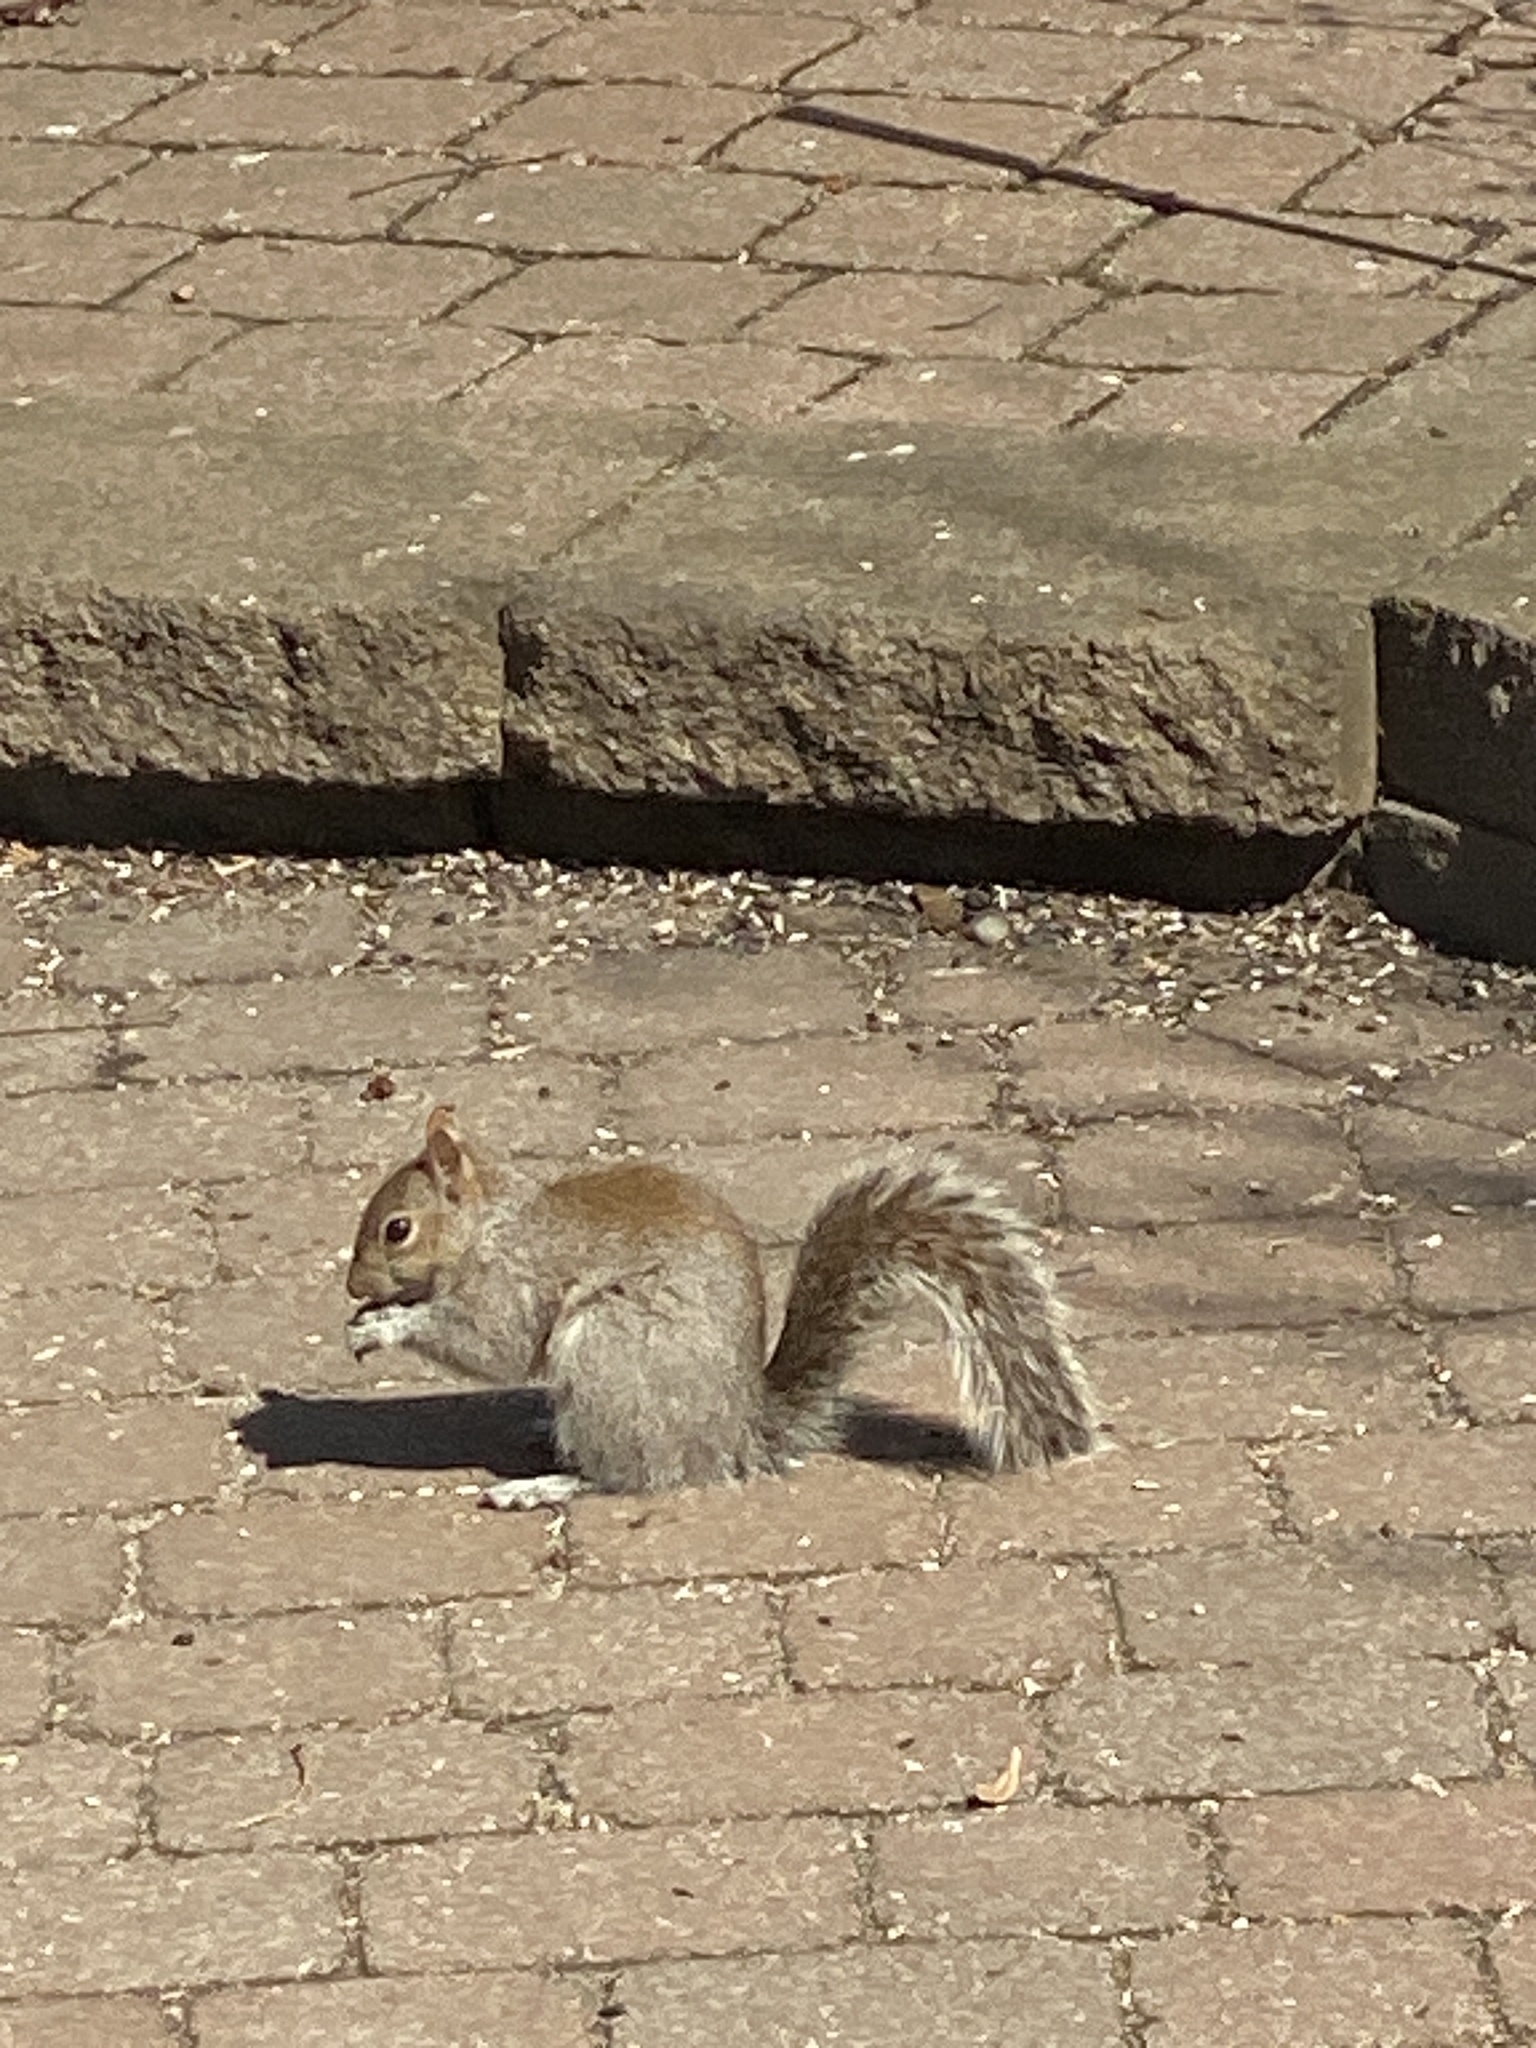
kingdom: Animalia
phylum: Chordata
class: Mammalia
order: Rodentia
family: Sciuridae
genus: Sciurus
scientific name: Sciurus carolinensis
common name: Eastern gray squirrel
